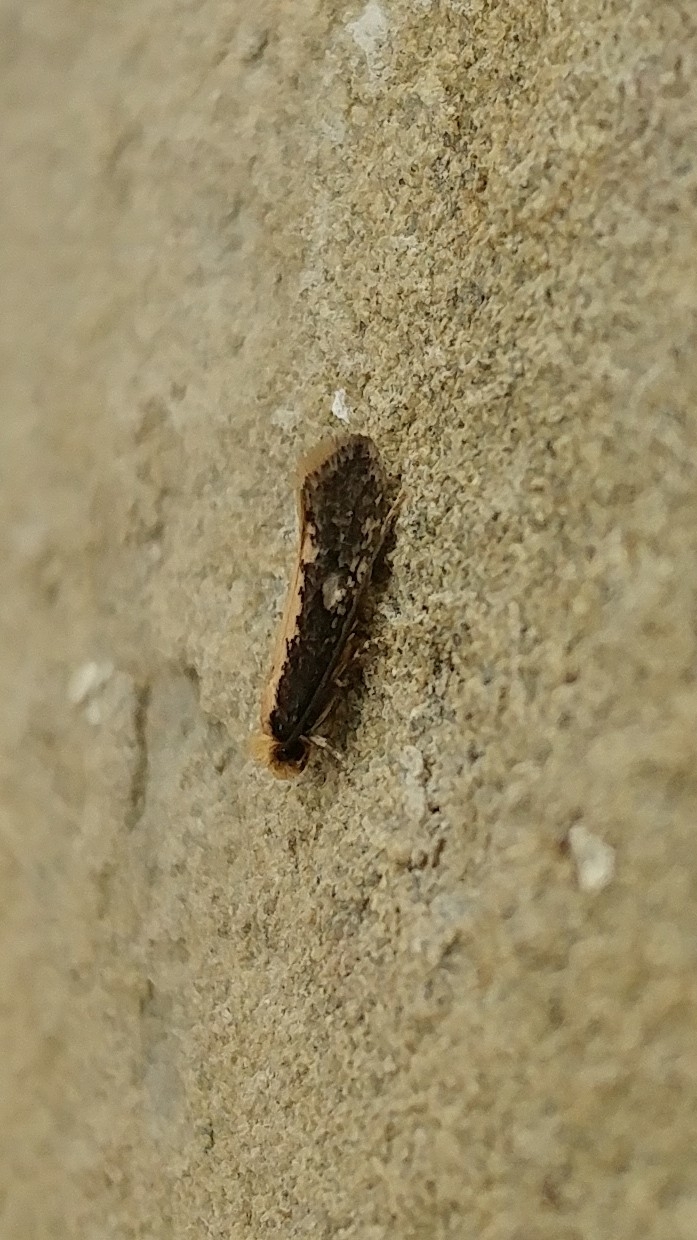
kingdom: Animalia
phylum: Arthropoda
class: Insecta
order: Lepidoptera
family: Tineidae
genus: Monopis
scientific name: Monopis crocicapitella
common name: Moth
